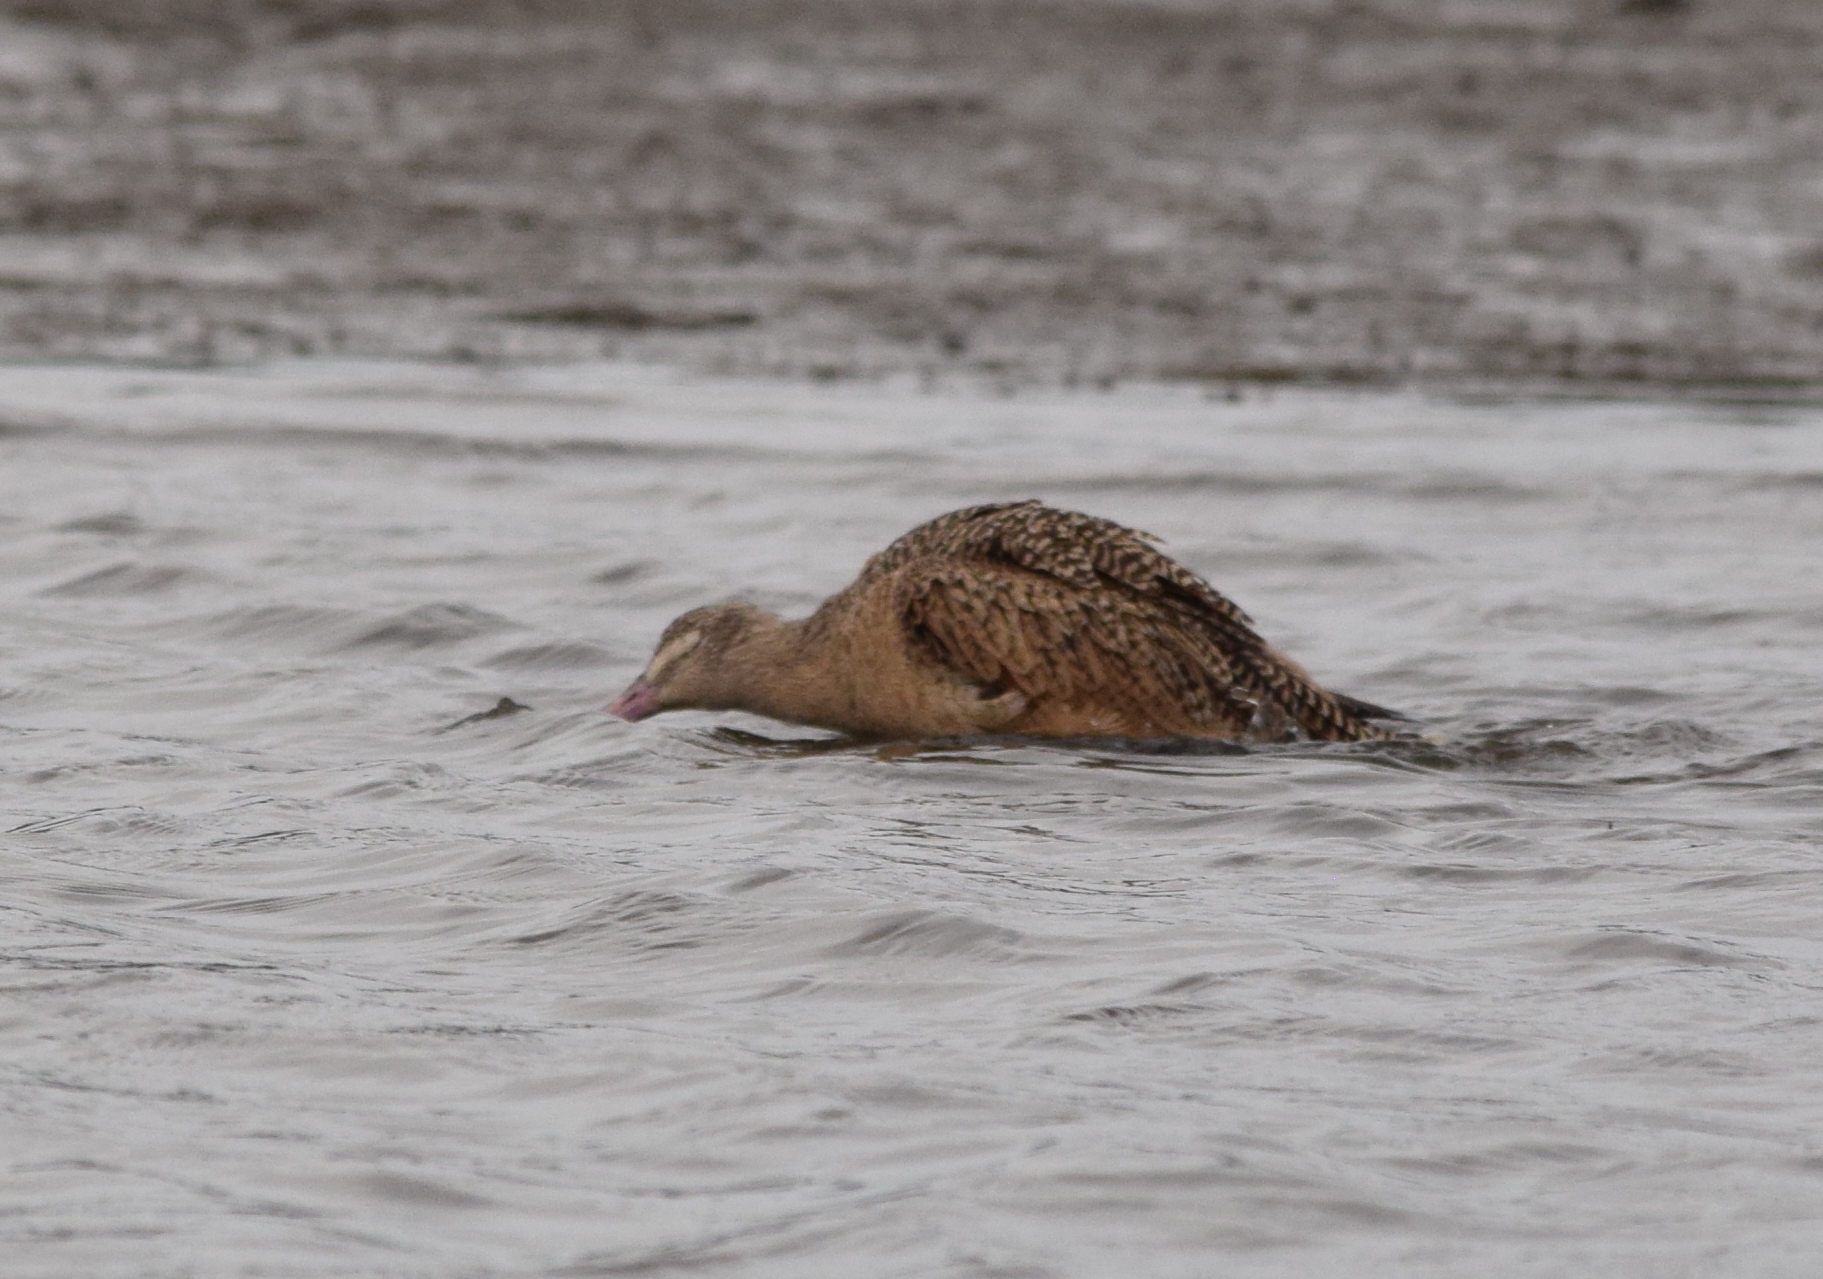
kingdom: Animalia
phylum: Chordata
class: Aves
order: Charadriiformes
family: Scolopacidae
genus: Limosa
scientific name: Limosa fedoa
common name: Marbled godwit
